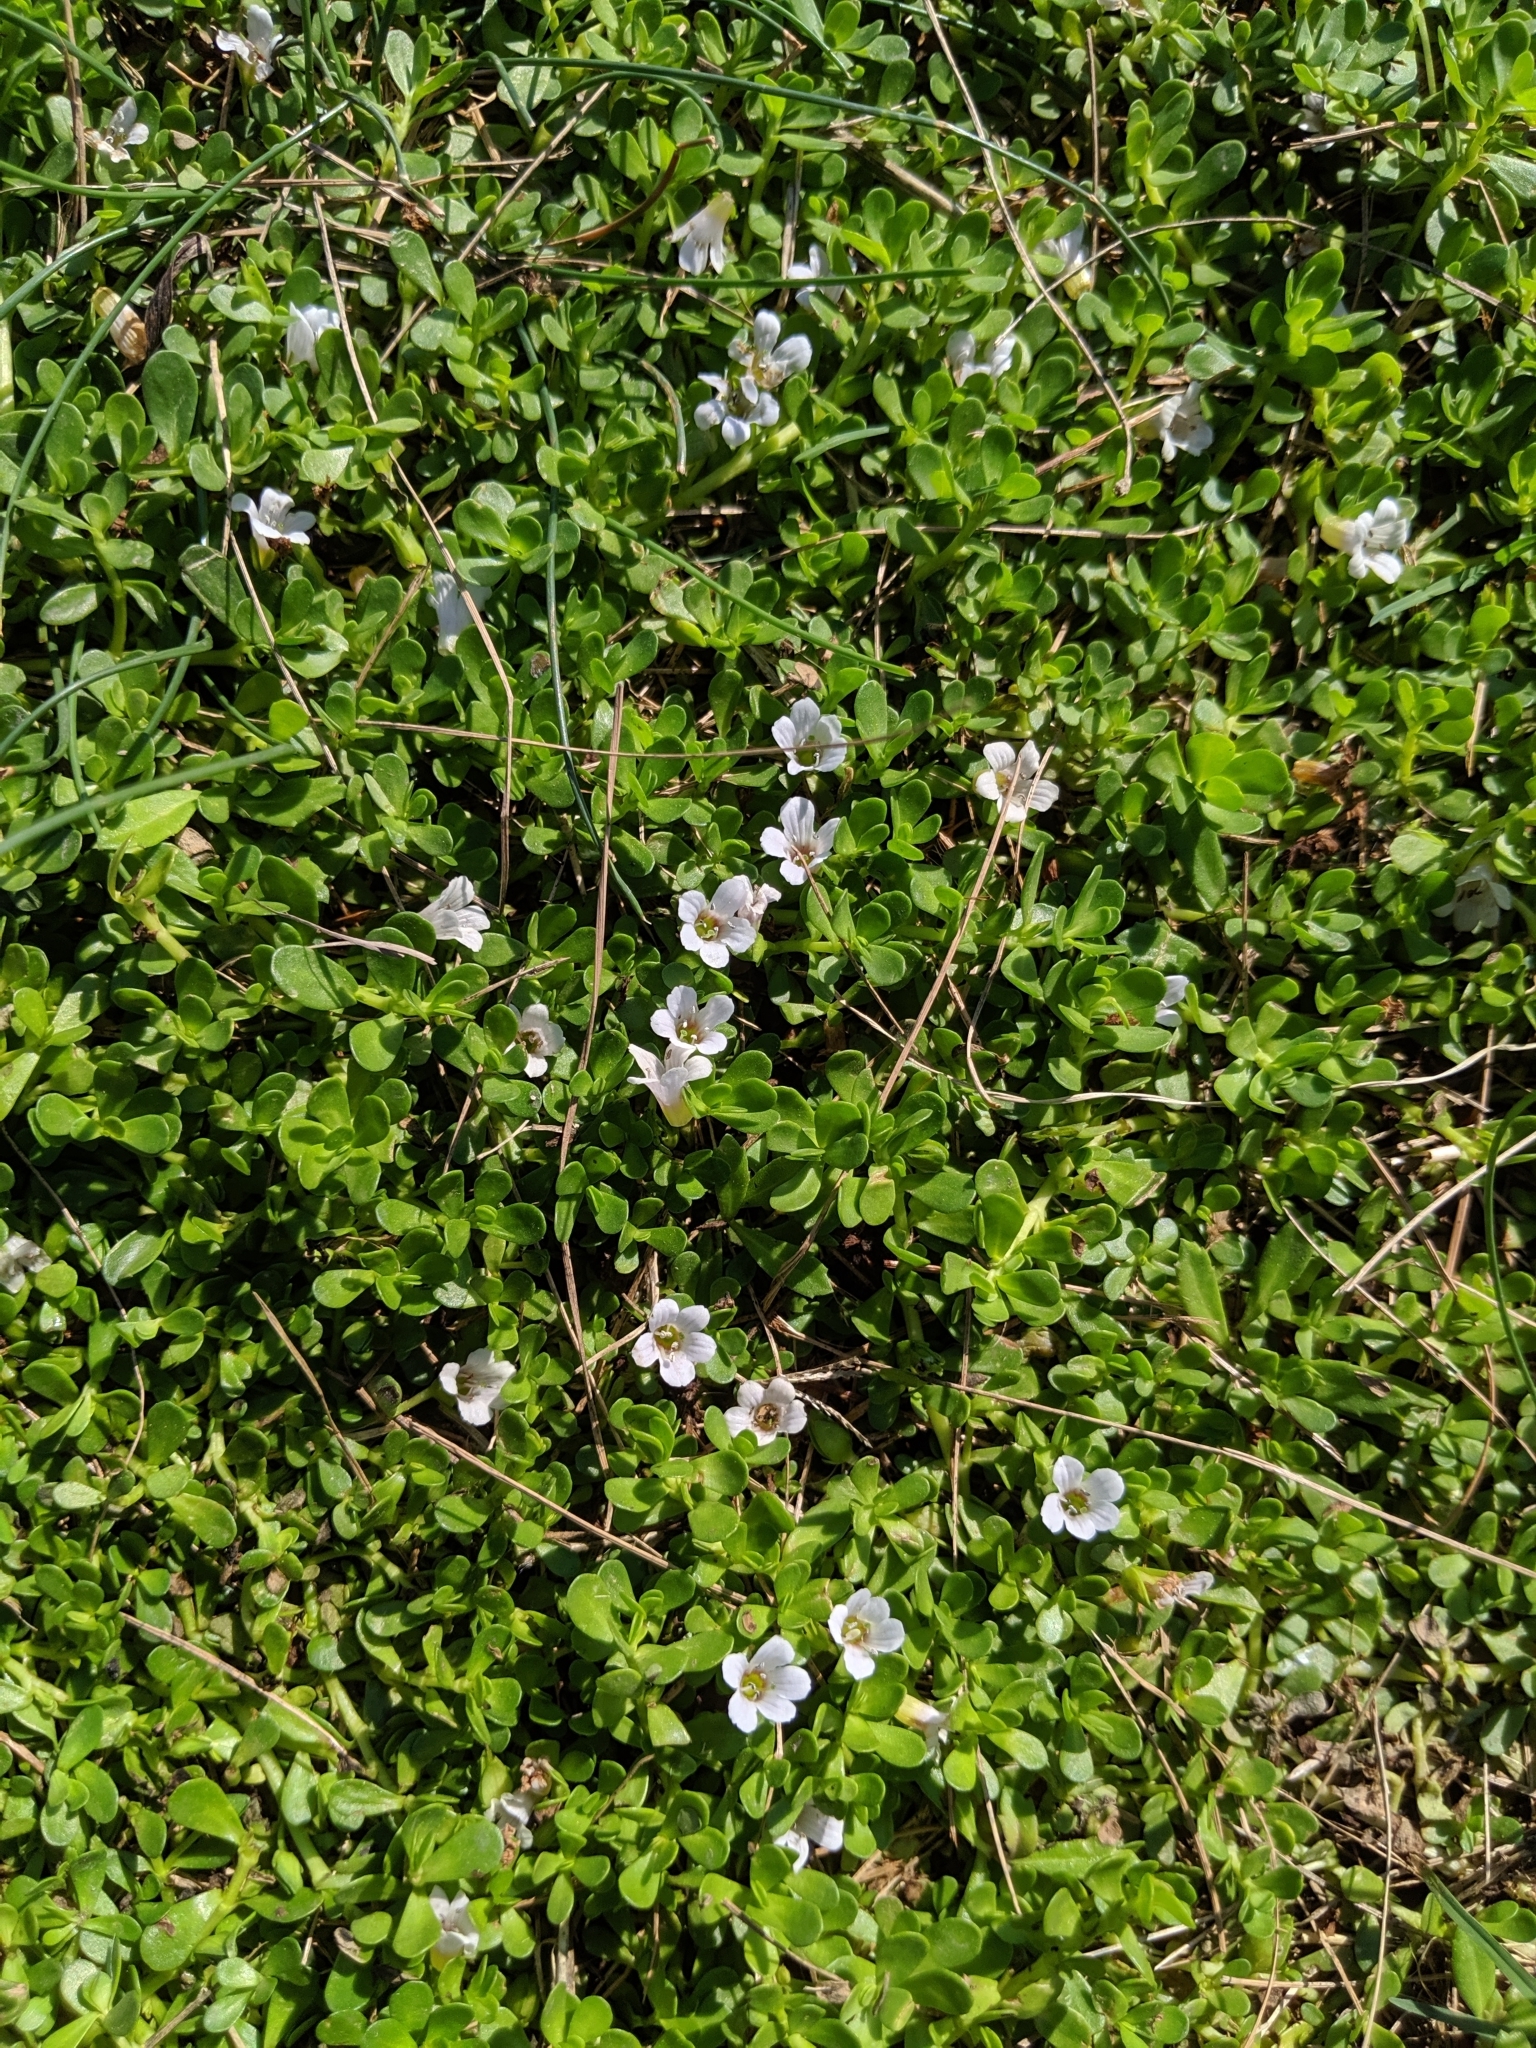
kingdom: Plantae
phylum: Tracheophyta
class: Magnoliopsida
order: Lamiales
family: Plantaginaceae
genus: Bacopa
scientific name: Bacopa monnieri
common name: Indian-pennywort
